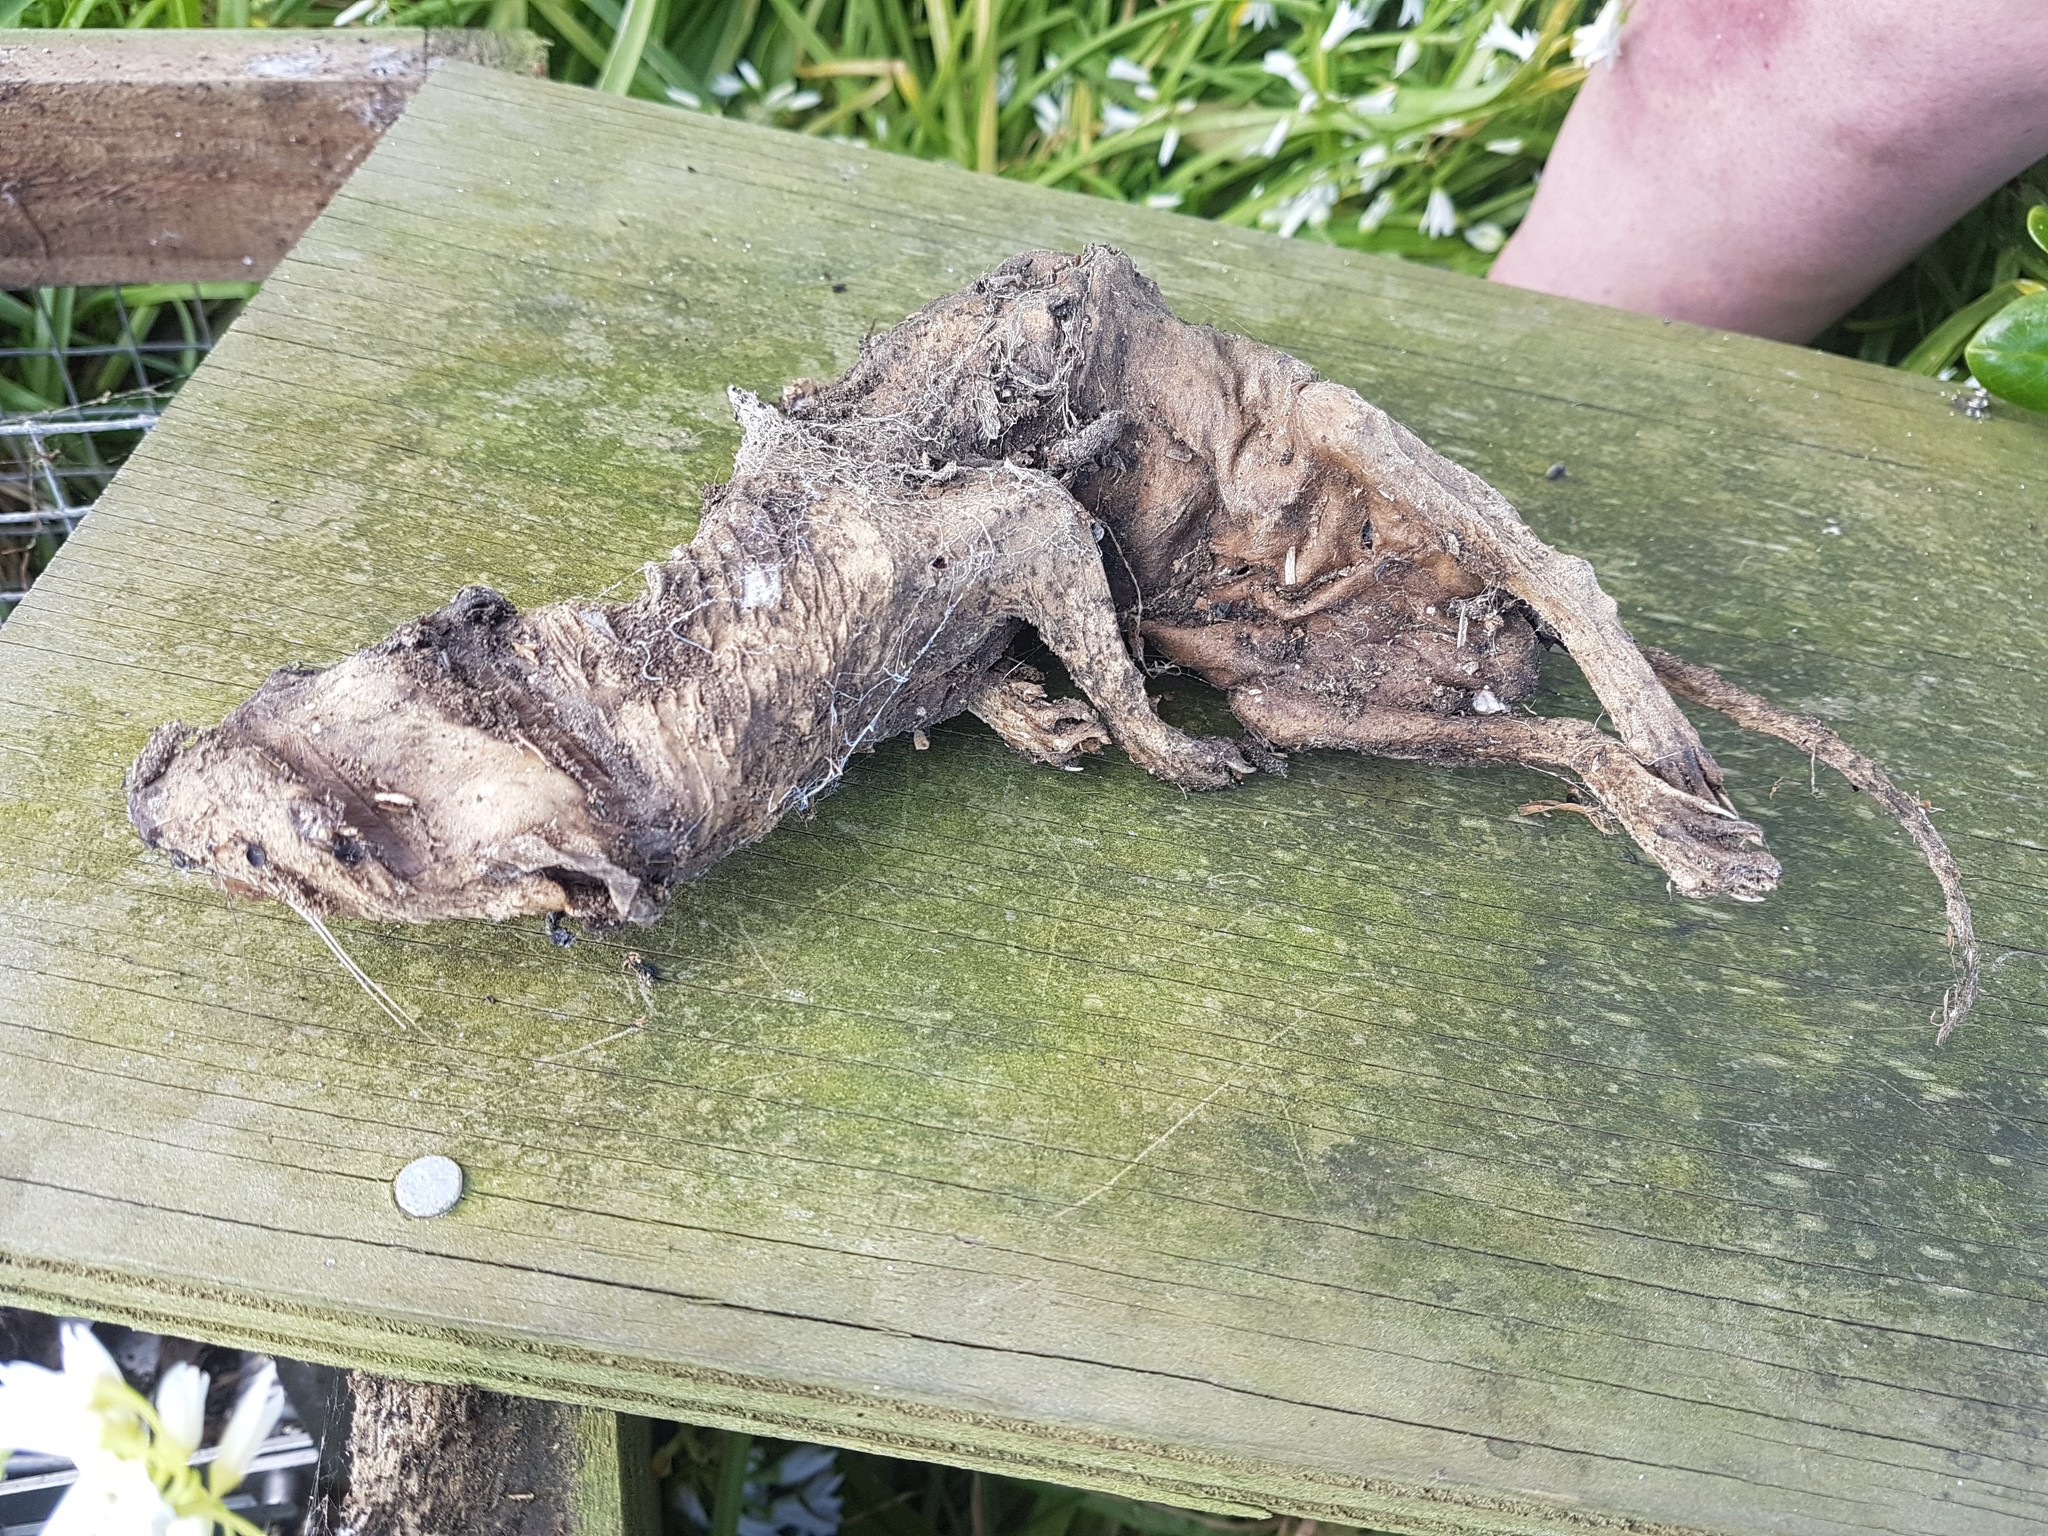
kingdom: Animalia
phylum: Chordata
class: Mammalia
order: Carnivora
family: Mustelidae
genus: Mustela
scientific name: Mustela erminea
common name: Stoat
